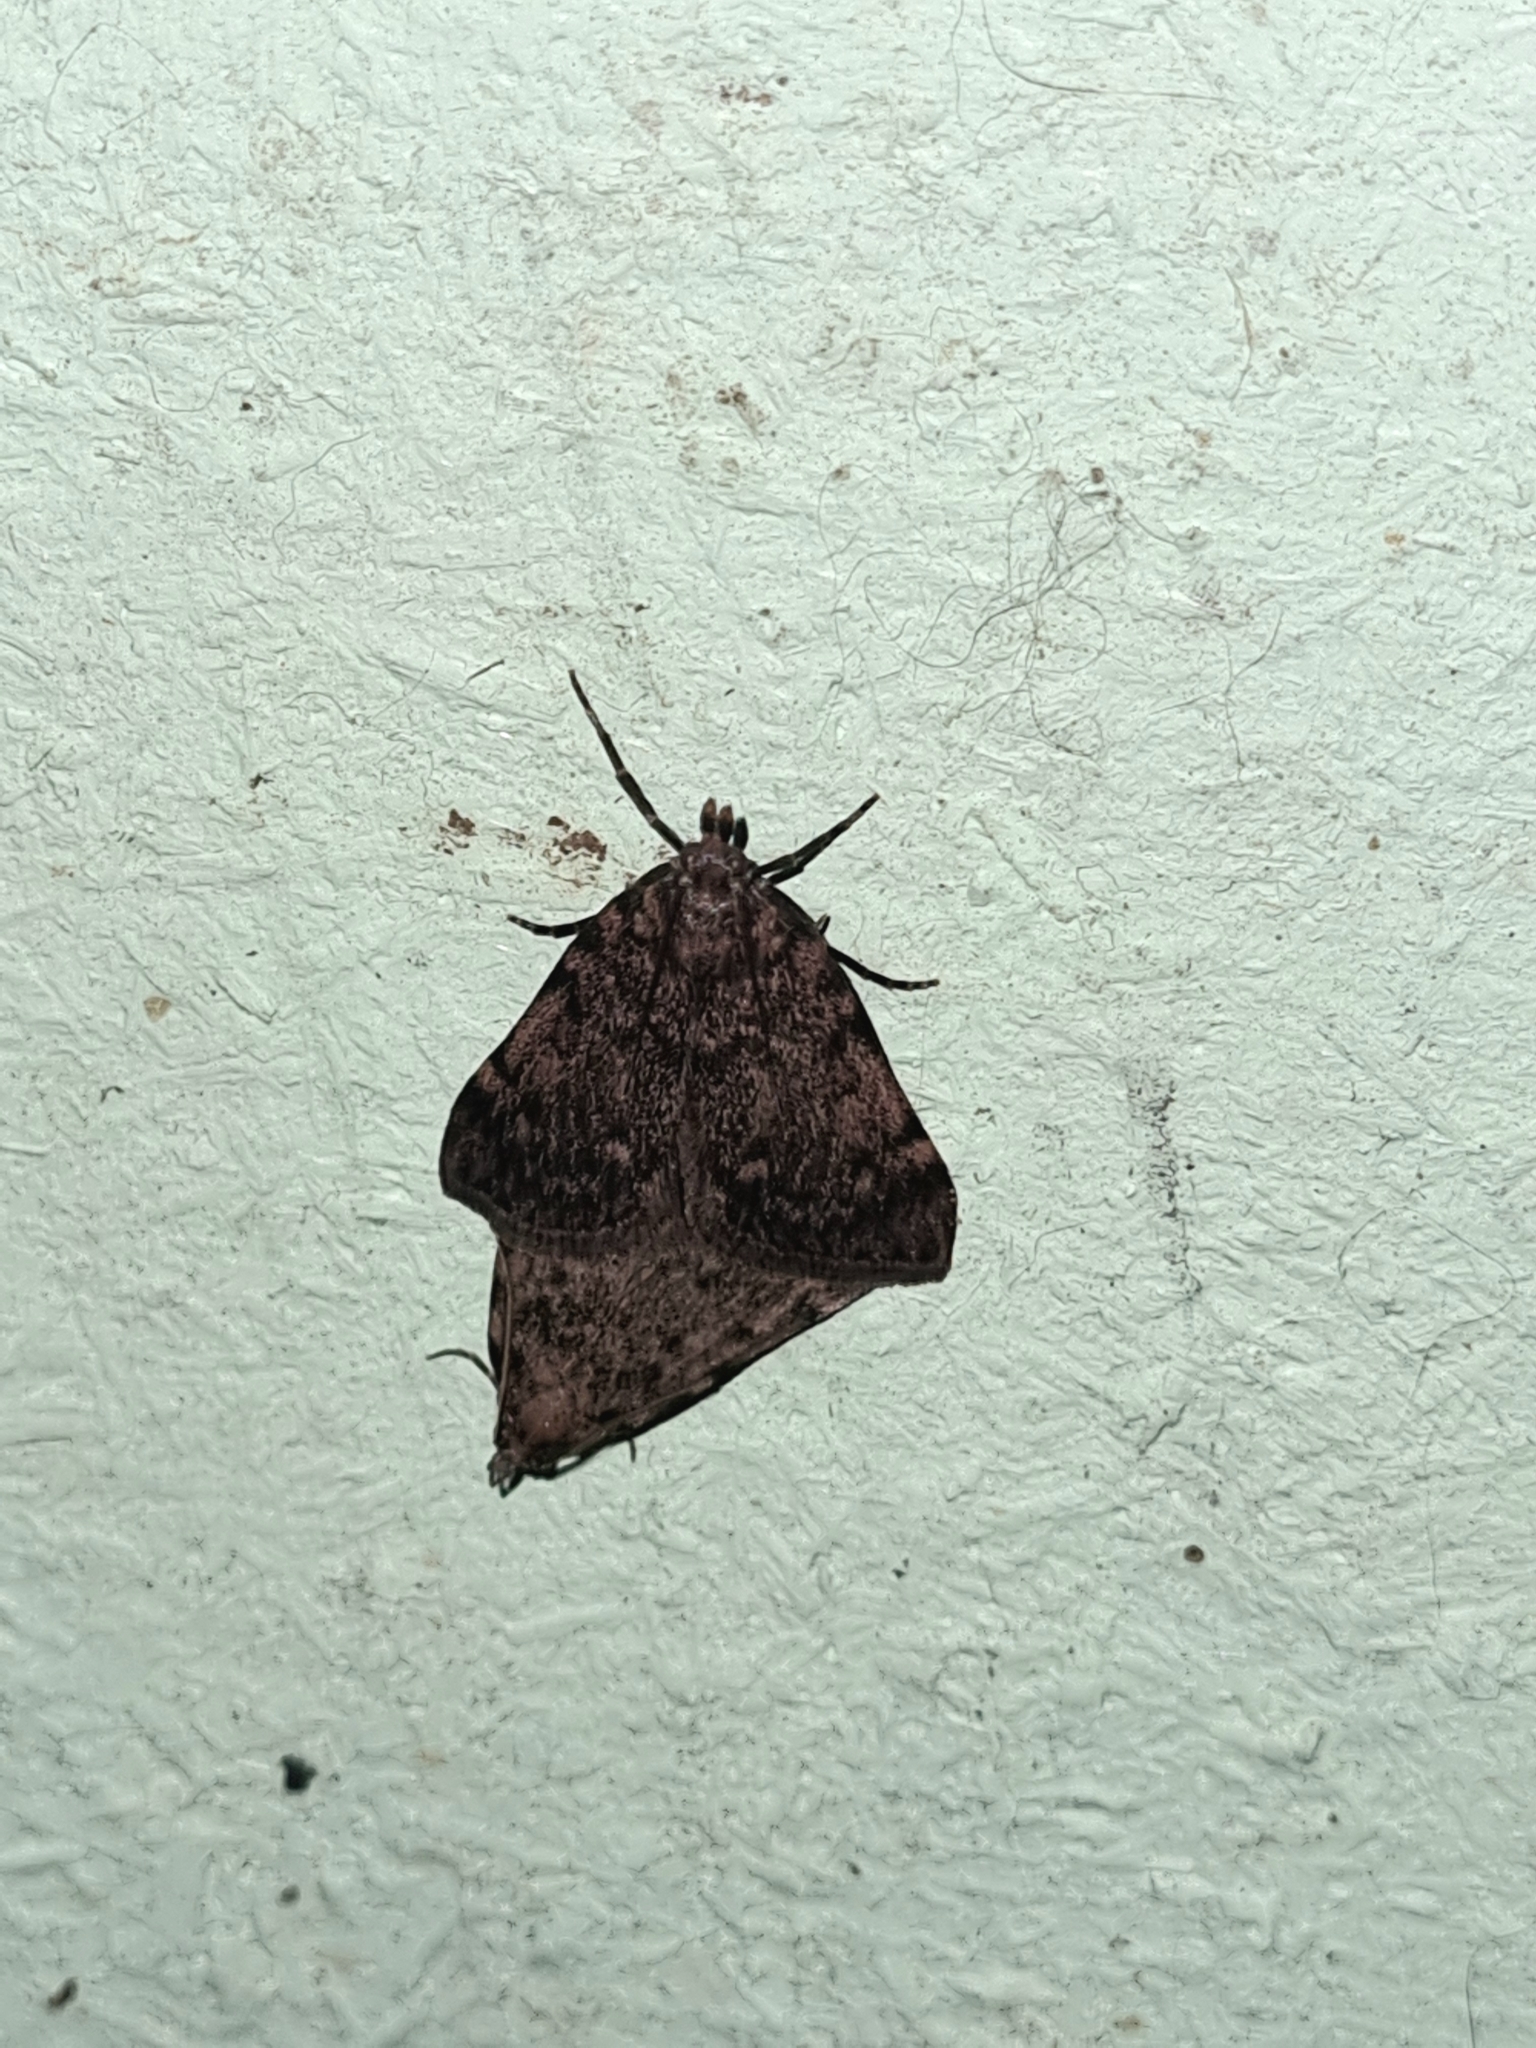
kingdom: Animalia
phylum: Arthropoda
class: Insecta
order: Lepidoptera
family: Pyralidae
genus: Aglossa
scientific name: Aglossa pinguinalis
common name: Large tabby
